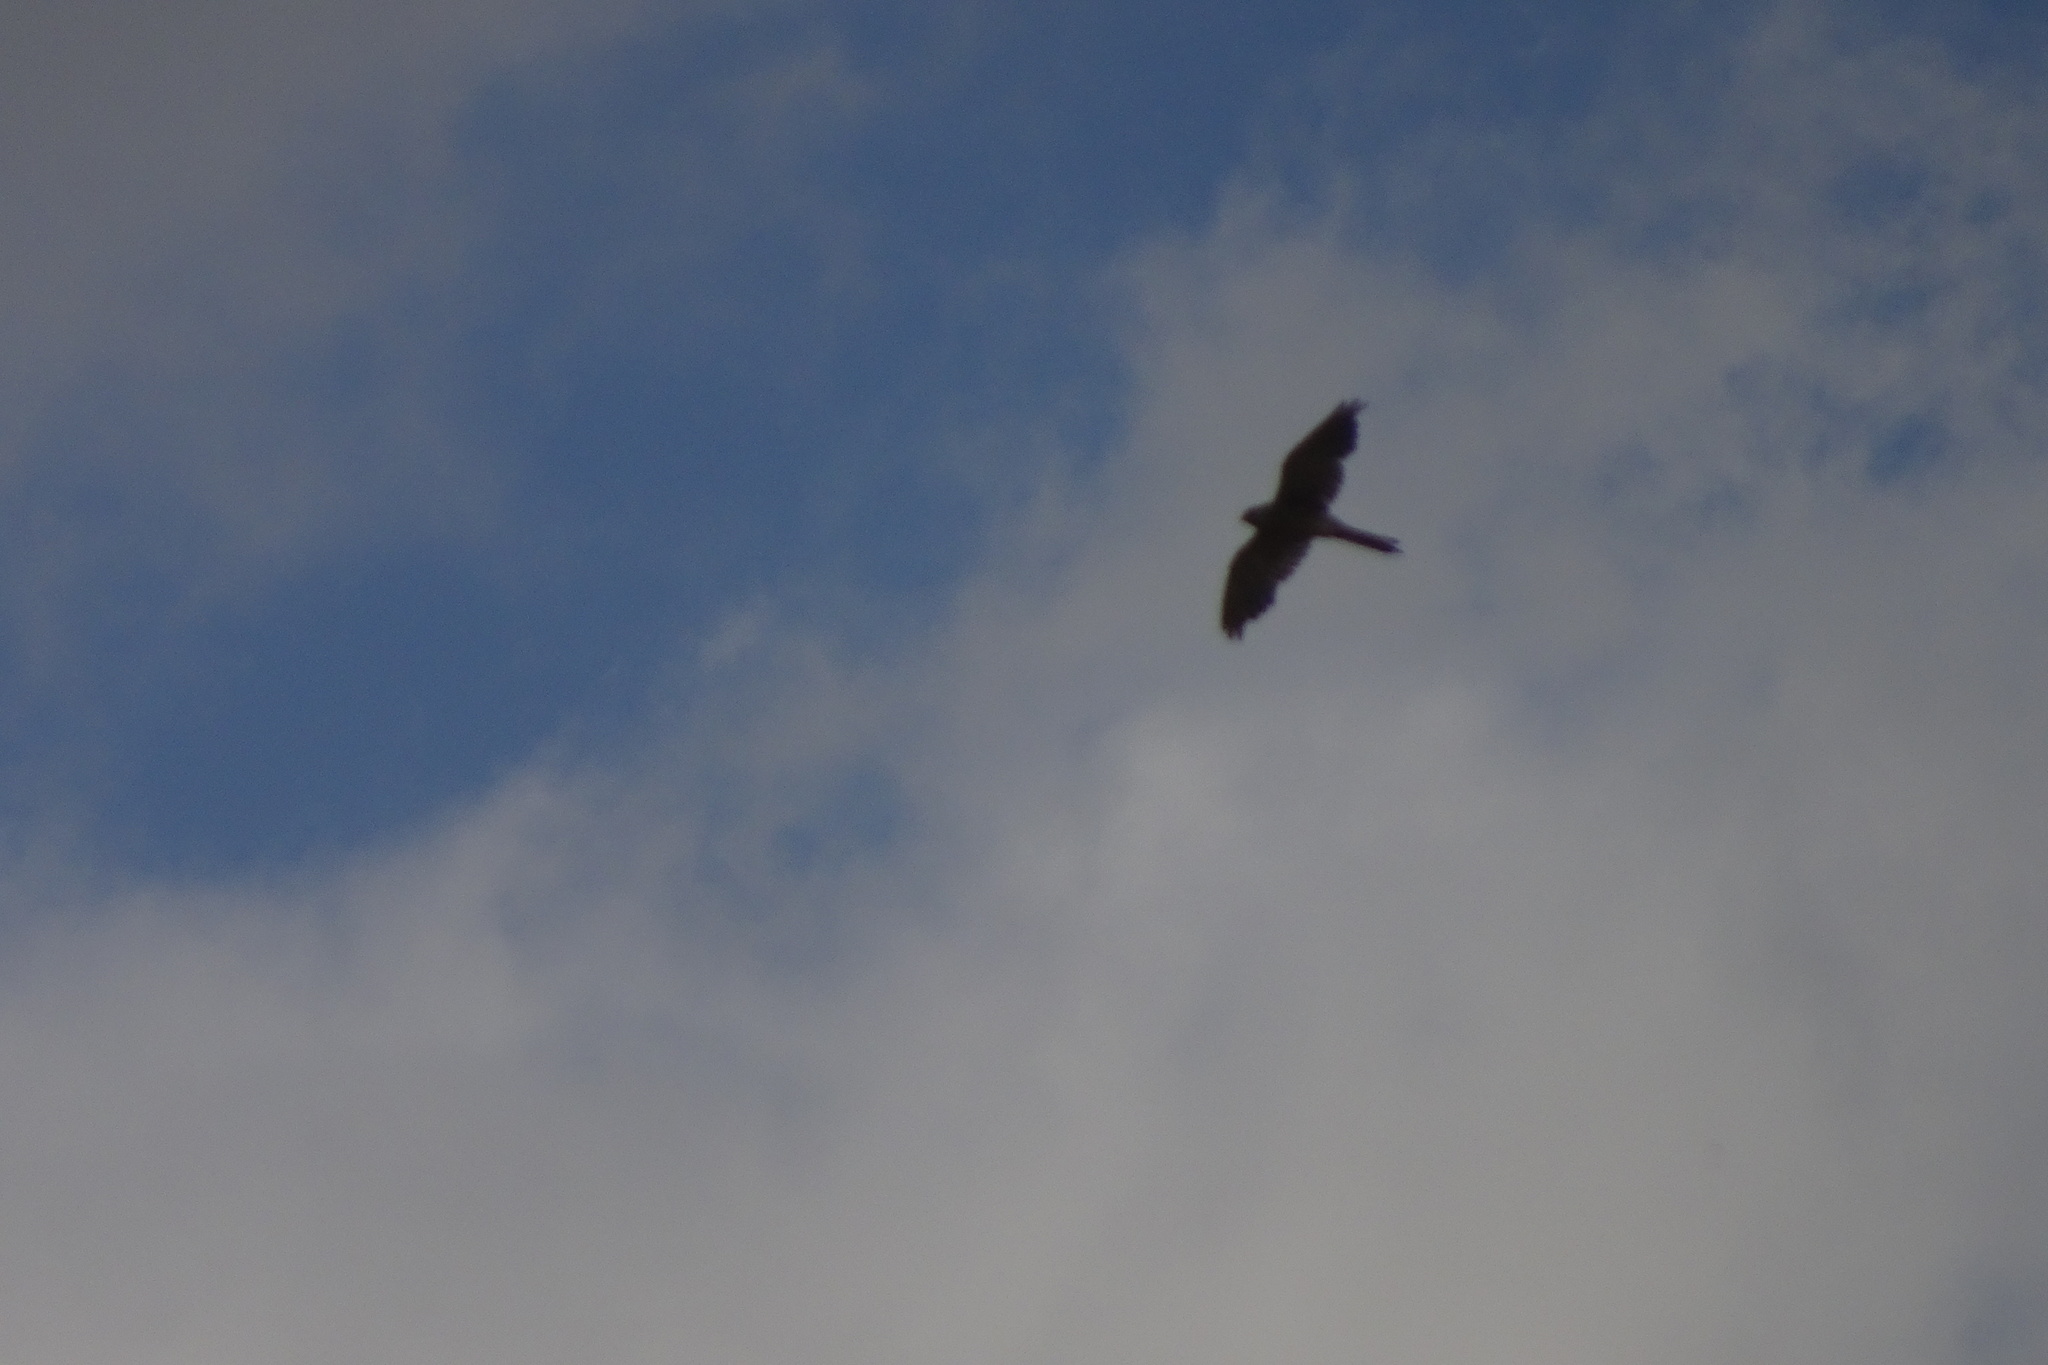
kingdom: Animalia
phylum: Chordata
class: Aves
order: Falconiformes
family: Falconidae
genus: Falco
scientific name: Falco tinnunculus
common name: Common kestrel
